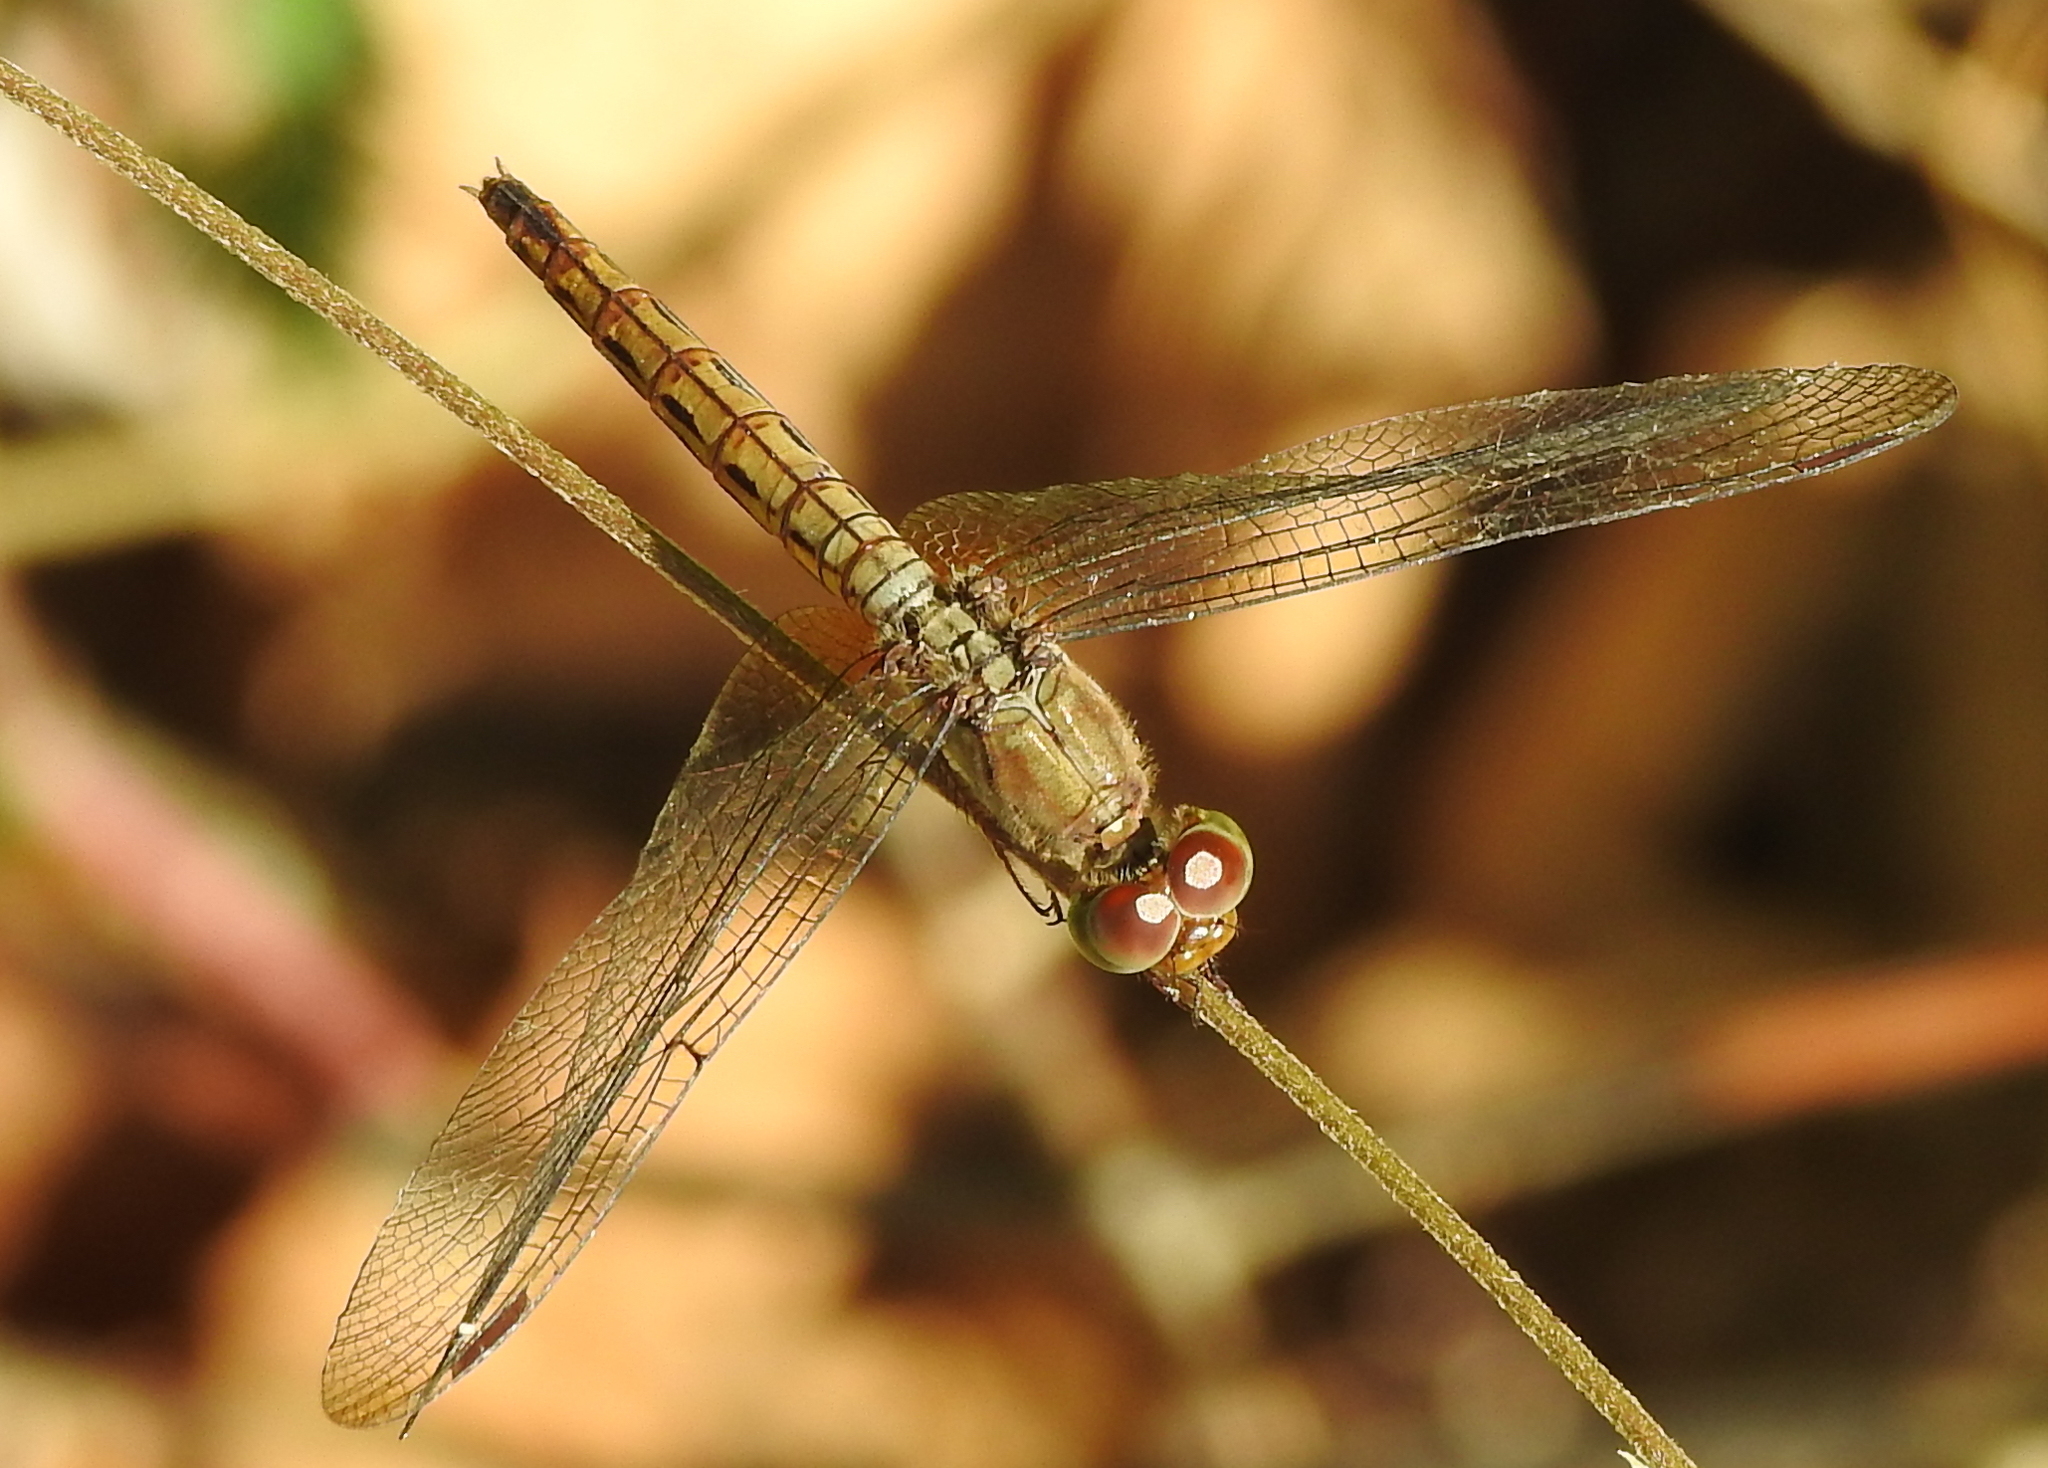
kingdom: Animalia
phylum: Arthropoda
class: Insecta
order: Odonata
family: Libellulidae
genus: Neurothemis
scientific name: Neurothemis fluctuans
